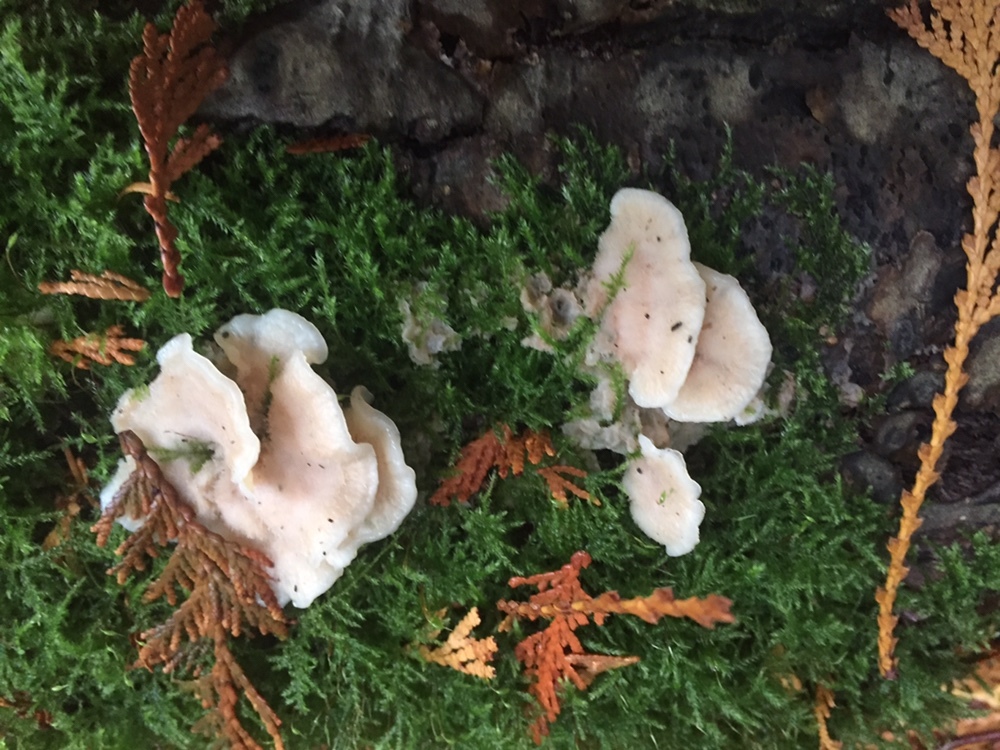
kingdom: Fungi
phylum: Basidiomycota
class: Agaricomycetes
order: Polyporales
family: Meruliaceae
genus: Phlebia
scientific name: Phlebia tremellosa
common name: Jelly rot
